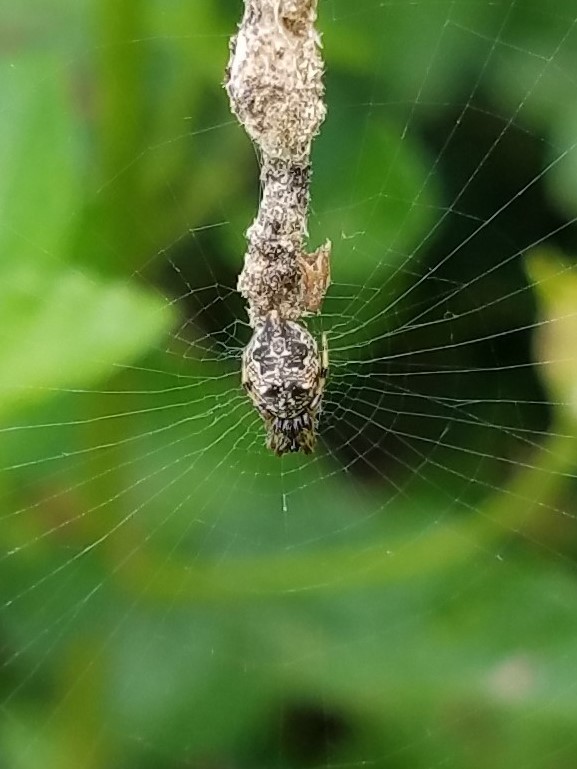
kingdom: Animalia
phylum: Arthropoda
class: Arachnida
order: Araneae
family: Araneidae
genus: Cyclosa
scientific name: Cyclosa turbinata
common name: Orb weavers
